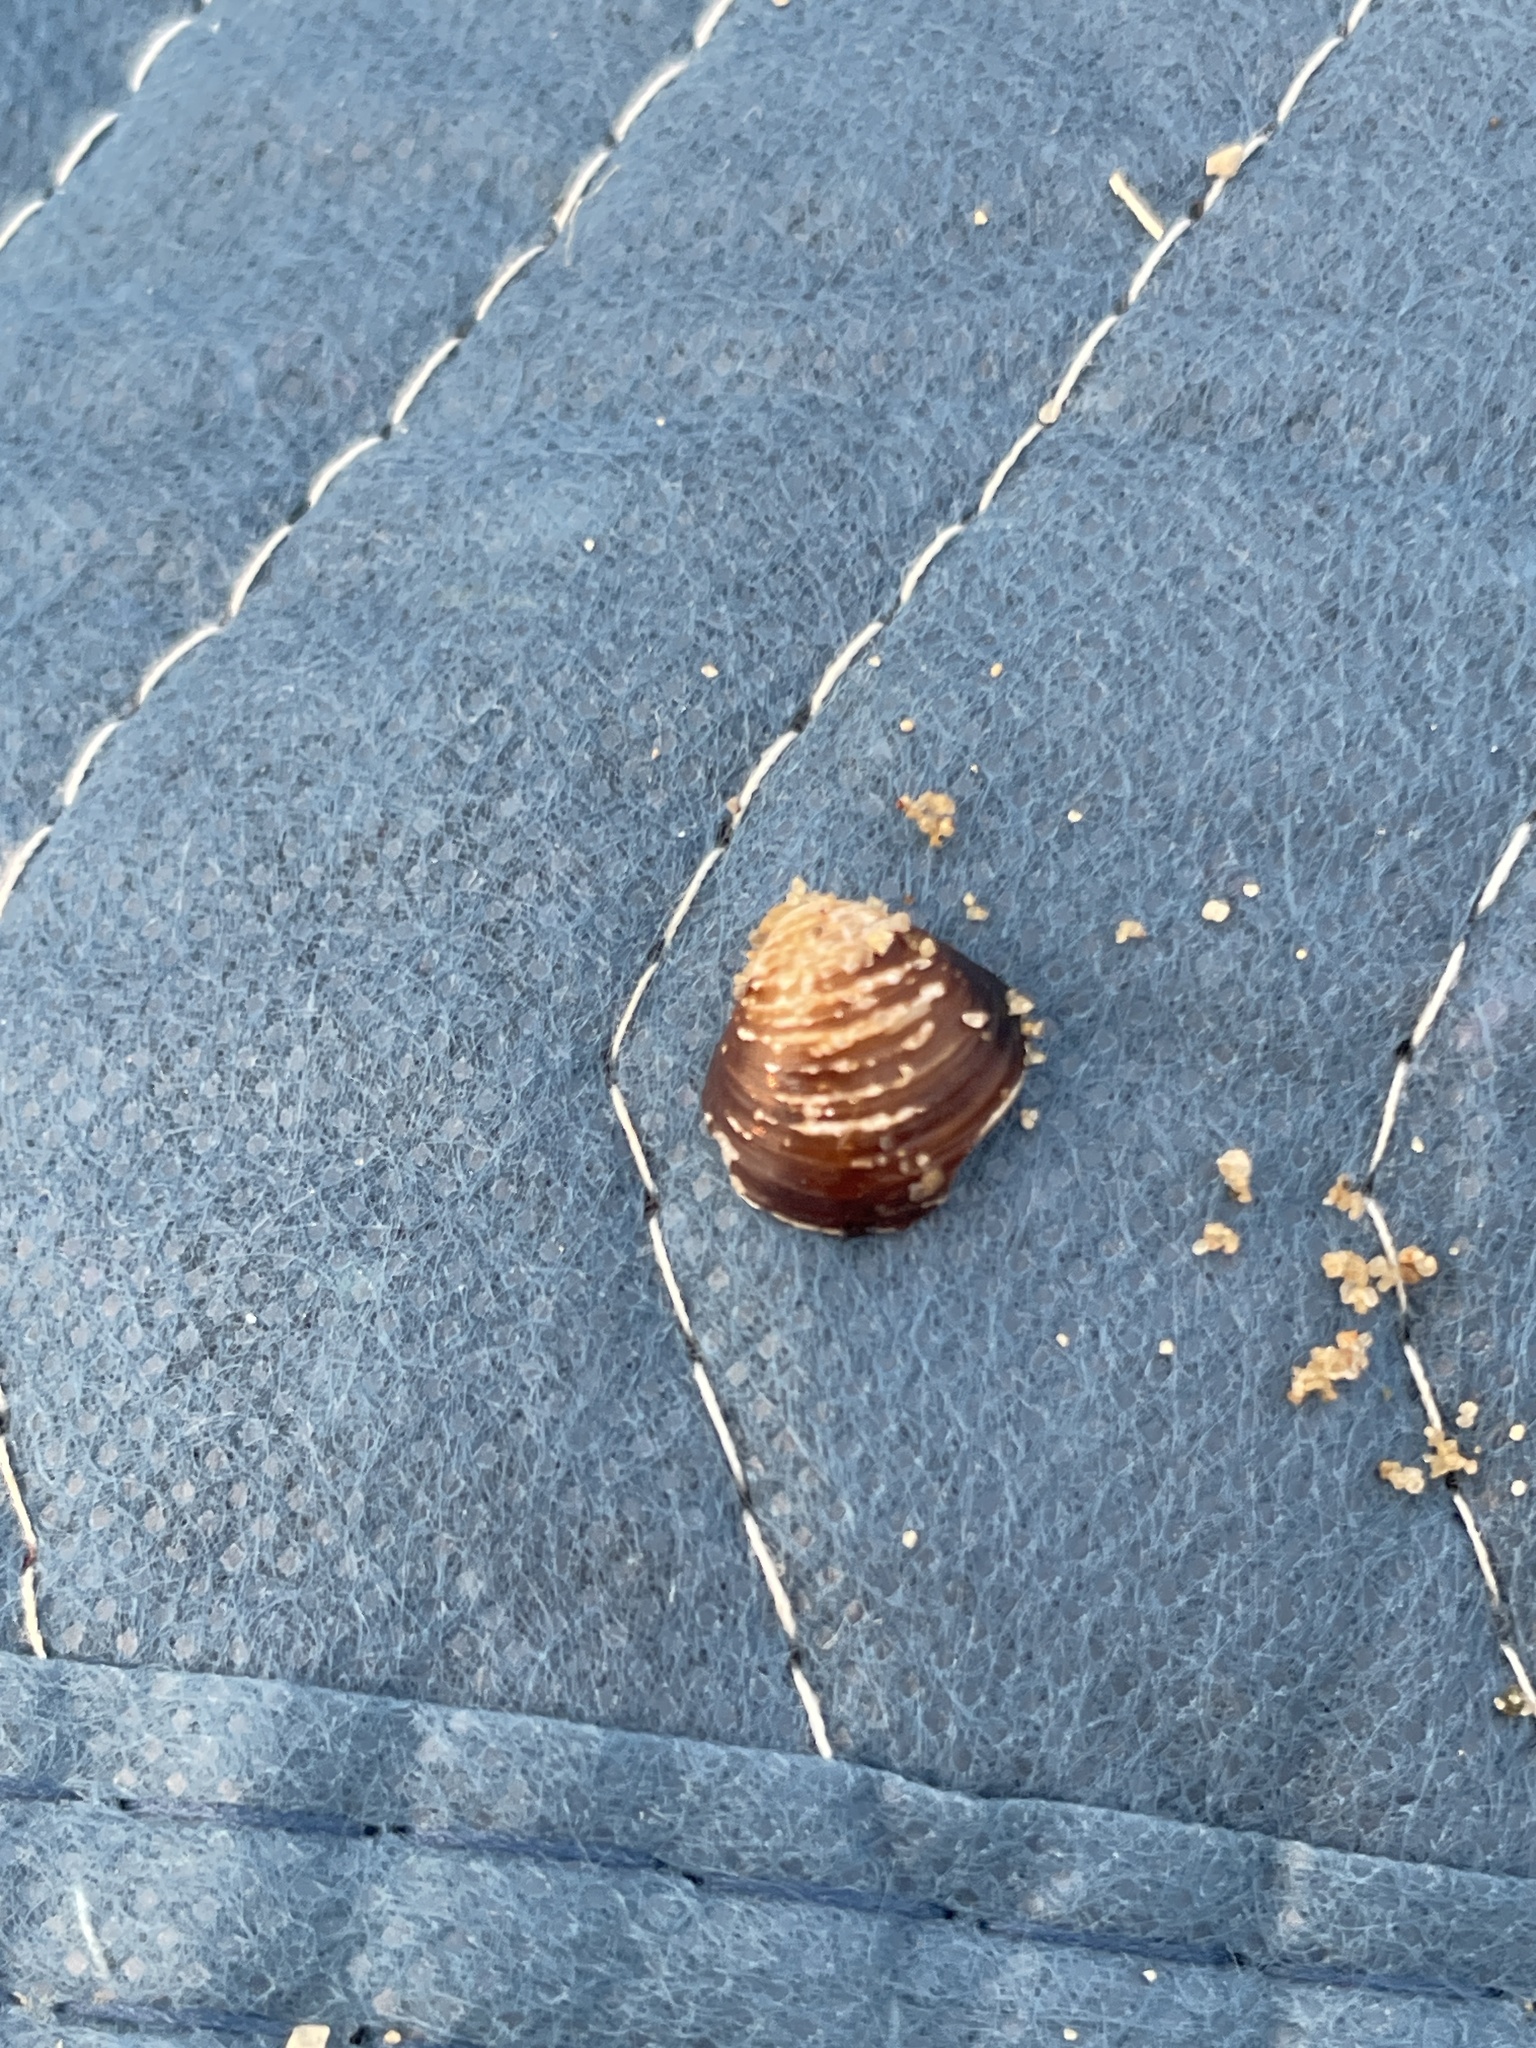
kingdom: Animalia
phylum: Mollusca
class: Bivalvia
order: Venerida
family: Cyrenidae
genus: Corbicula
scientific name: Corbicula fluminea
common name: Asian clam
